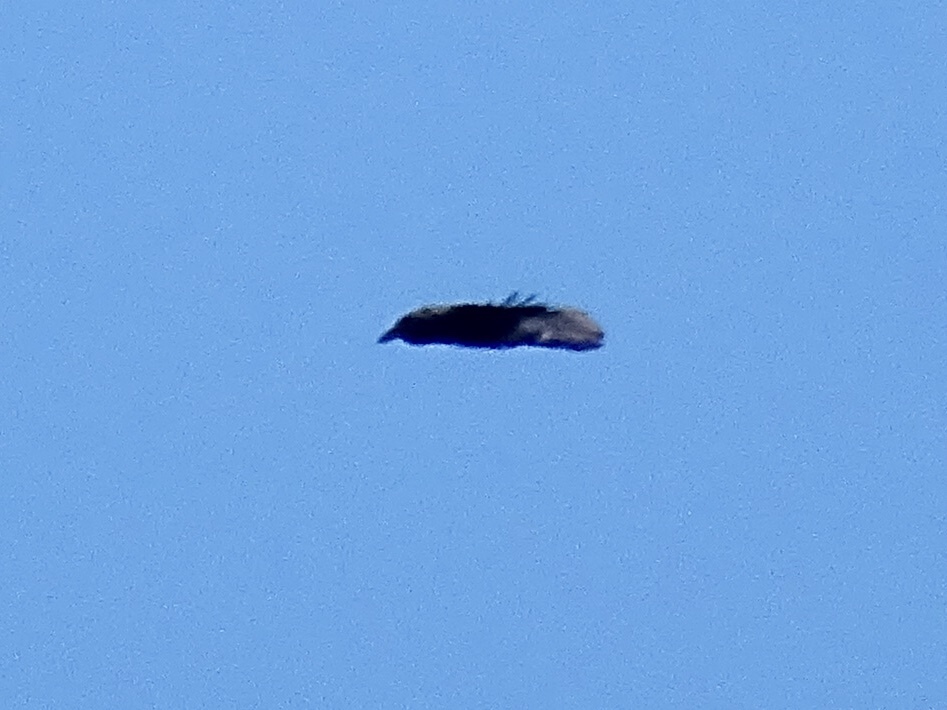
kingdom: Animalia
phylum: Chordata
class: Aves
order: Passeriformes
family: Corvidae
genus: Corvus
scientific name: Corvus corax
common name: Common raven
